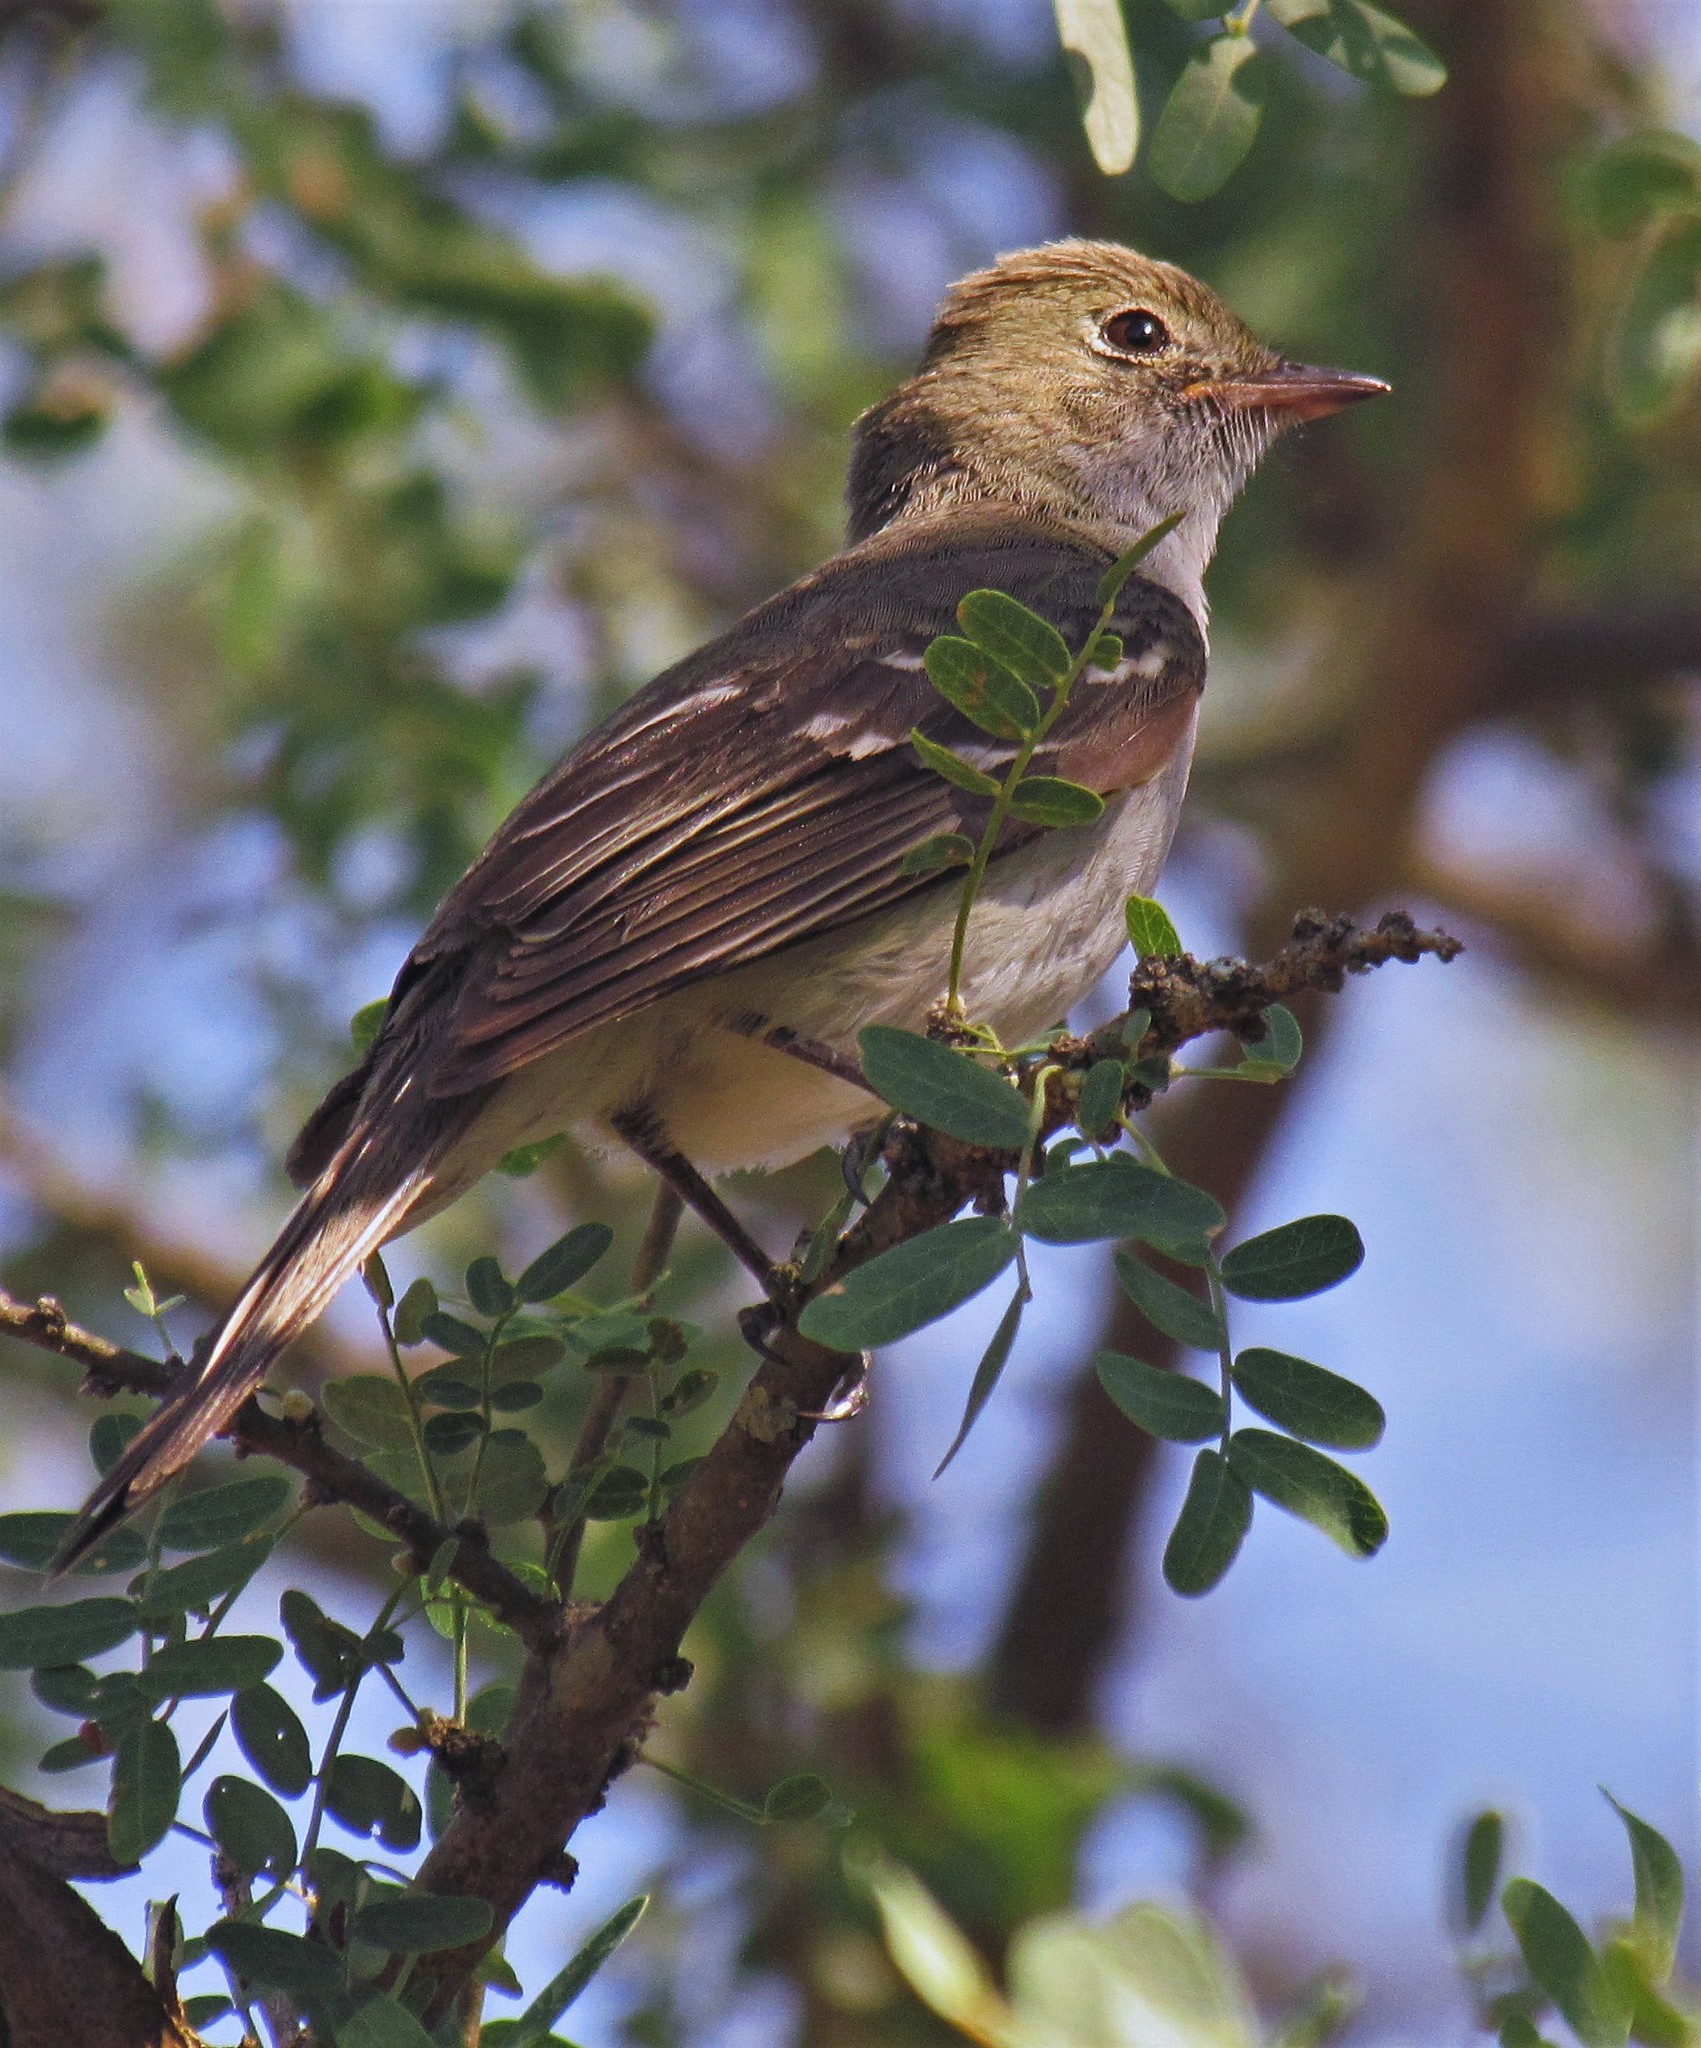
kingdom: Animalia
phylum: Chordata
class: Aves
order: Passeriformes
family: Tyrannidae
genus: Elaenia
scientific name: Elaenia parvirostris
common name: Small-billed elaenia
